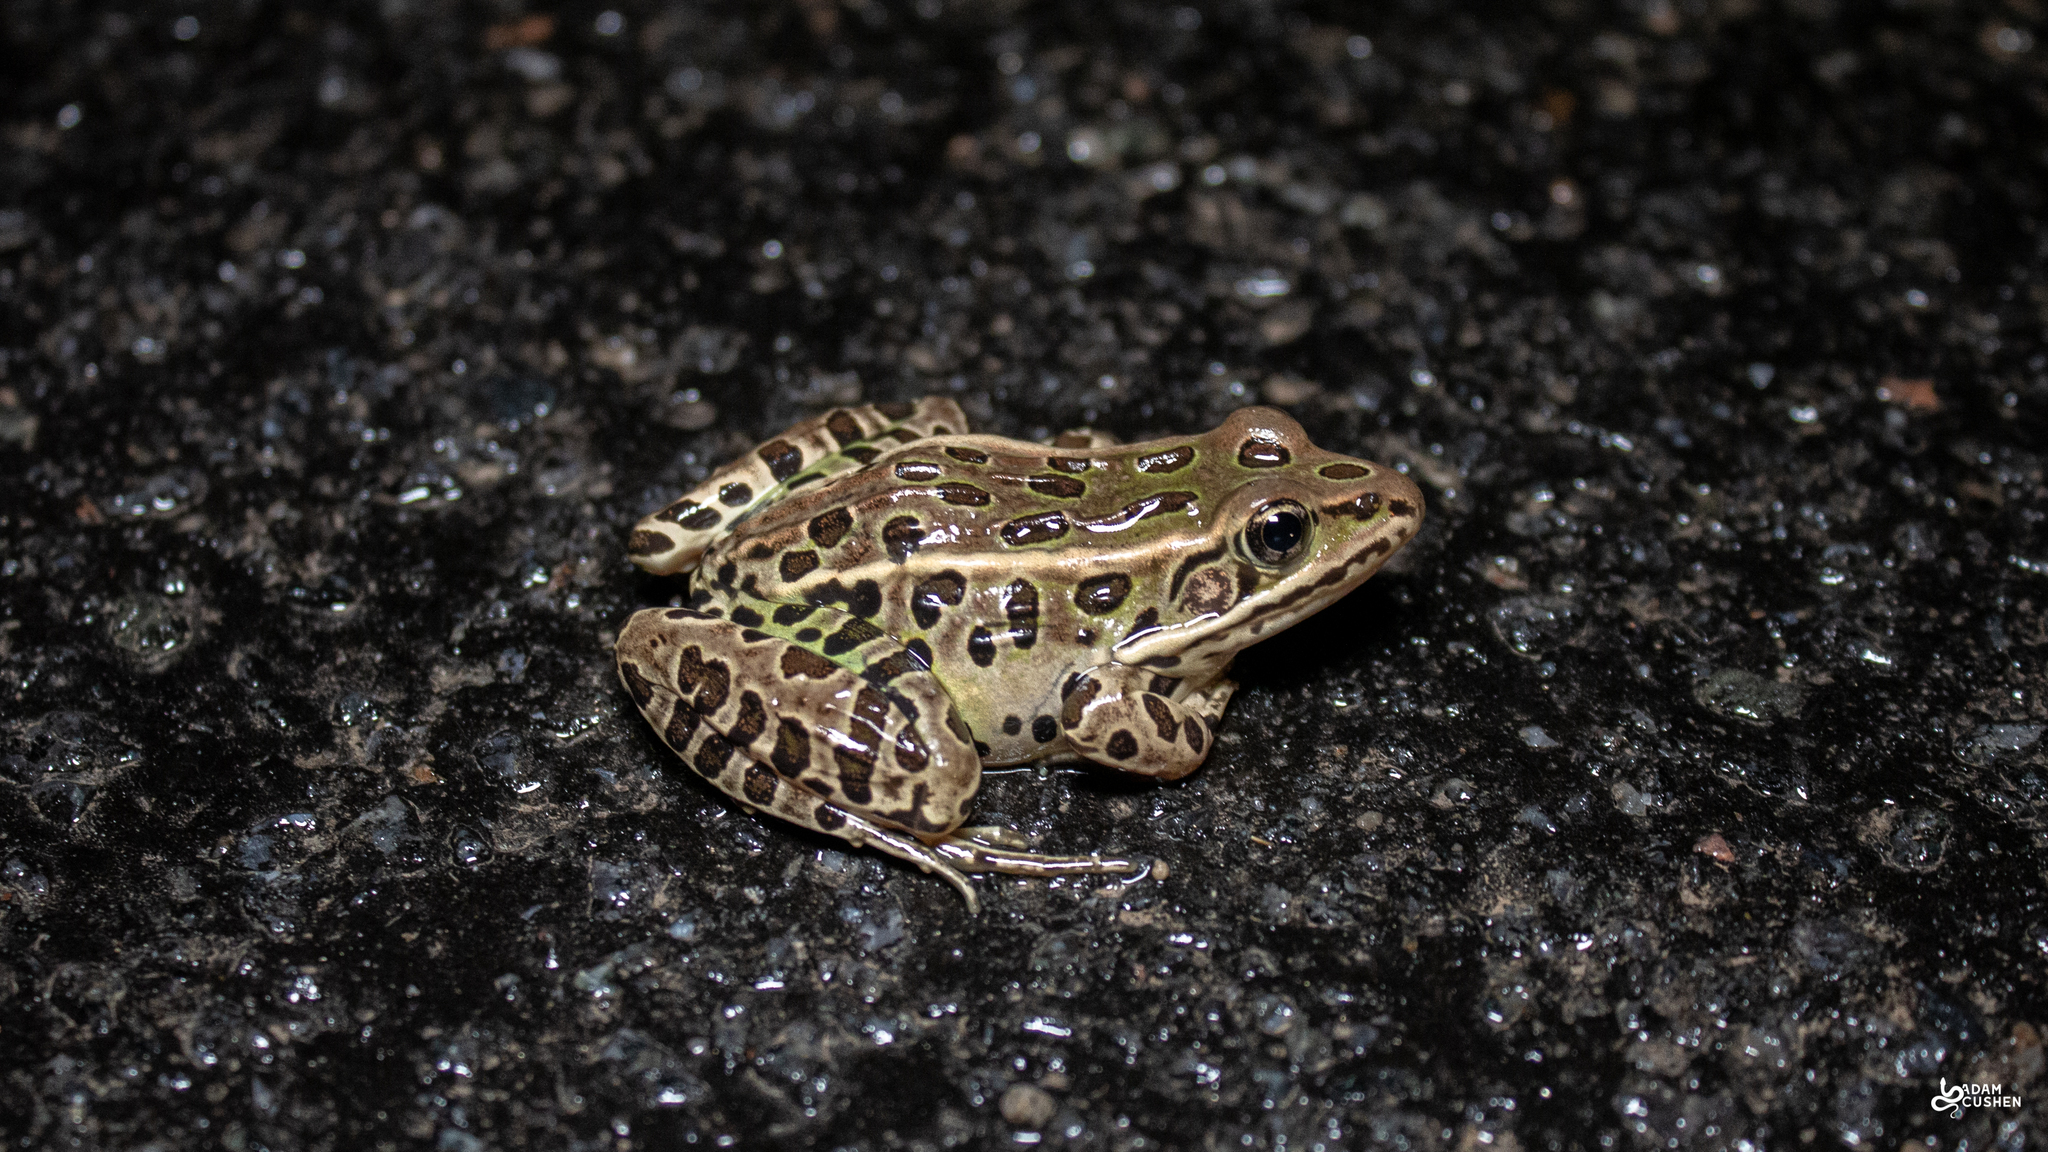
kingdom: Animalia
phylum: Chordata
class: Amphibia
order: Anura
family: Ranidae
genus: Lithobates
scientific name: Lithobates pipiens
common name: Northern leopard frog
